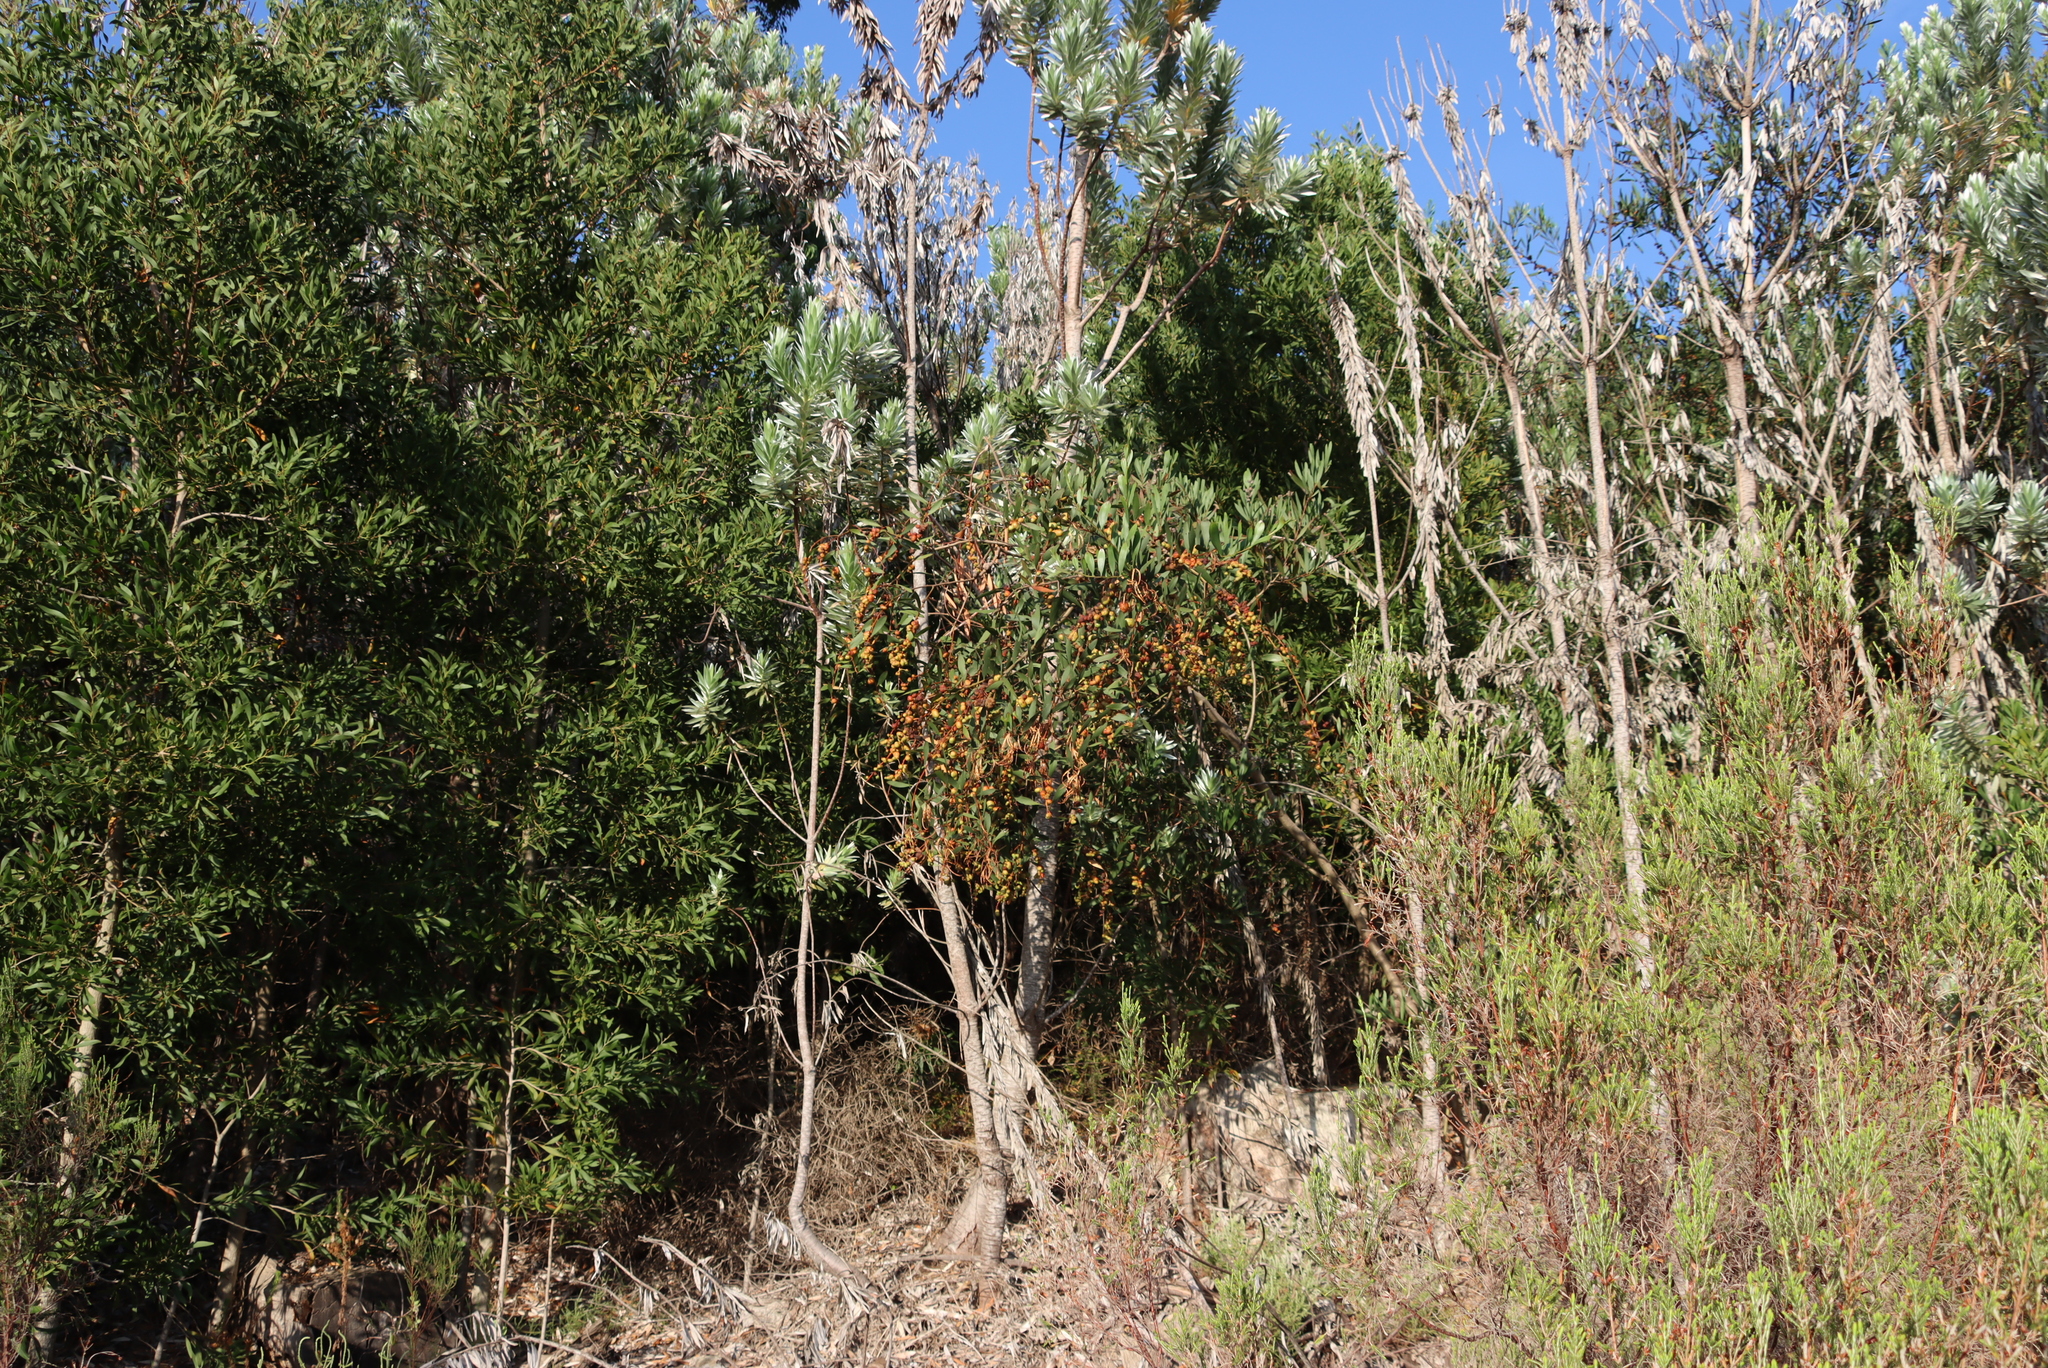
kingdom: Plantae
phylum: Tracheophyta
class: Magnoliopsida
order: Fabales
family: Fabaceae
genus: Acacia
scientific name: Acacia longifolia
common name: Sydney golden wattle
